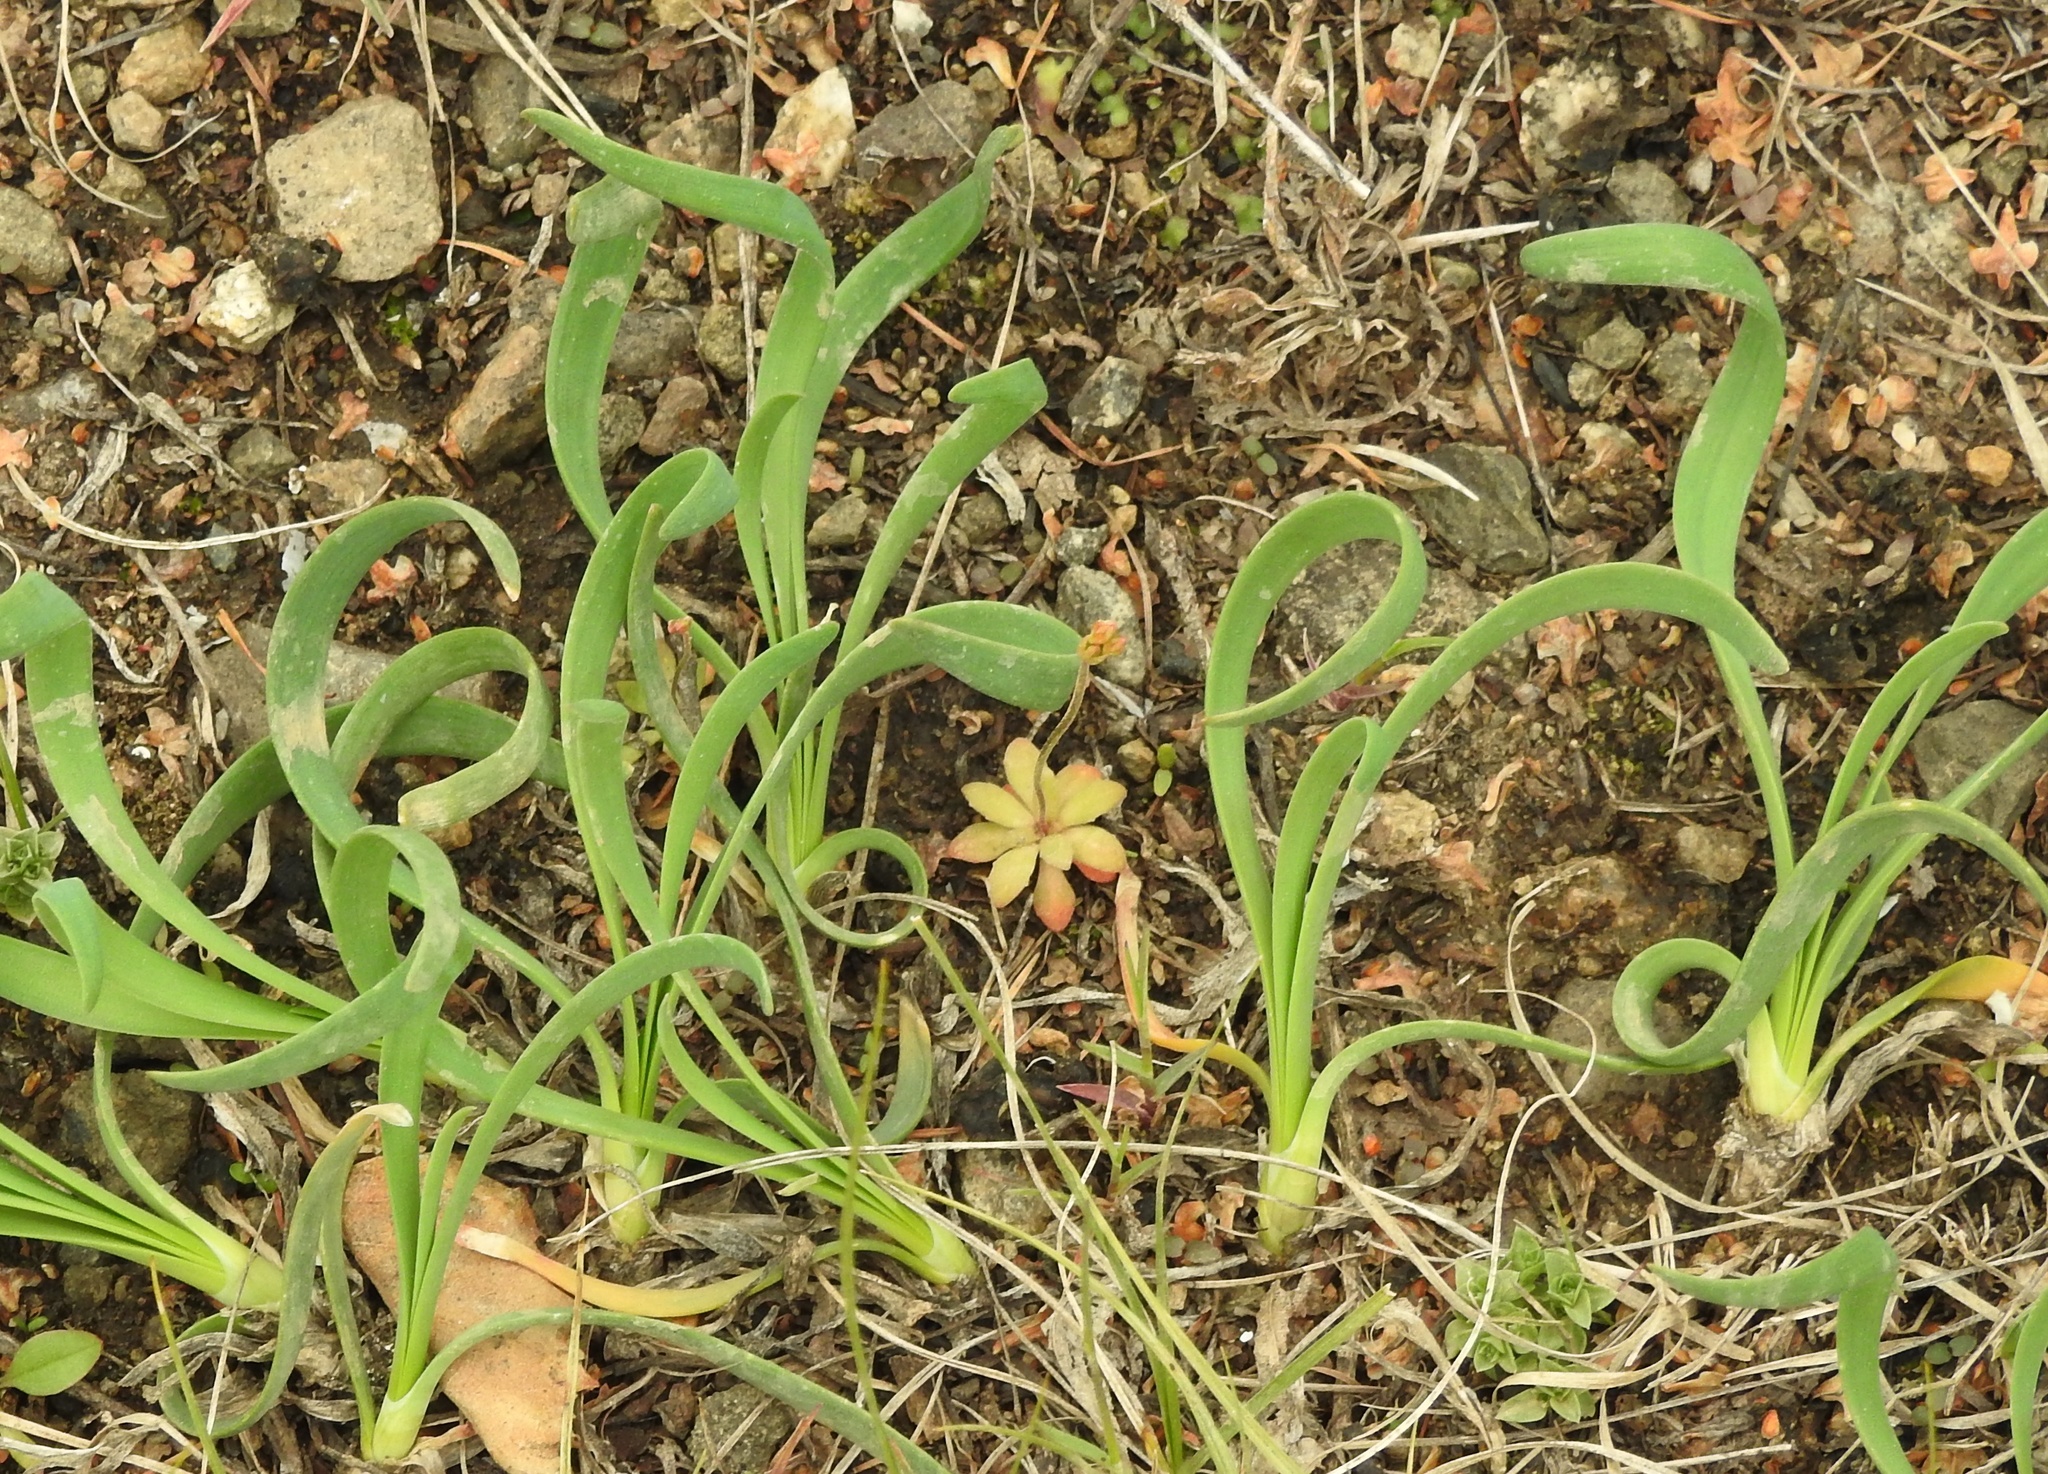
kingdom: Plantae
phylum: Tracheophyta
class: Liliopsida
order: Asparagales
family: Amaryllidaceae
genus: Allium
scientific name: Allium senescens
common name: German garlic
